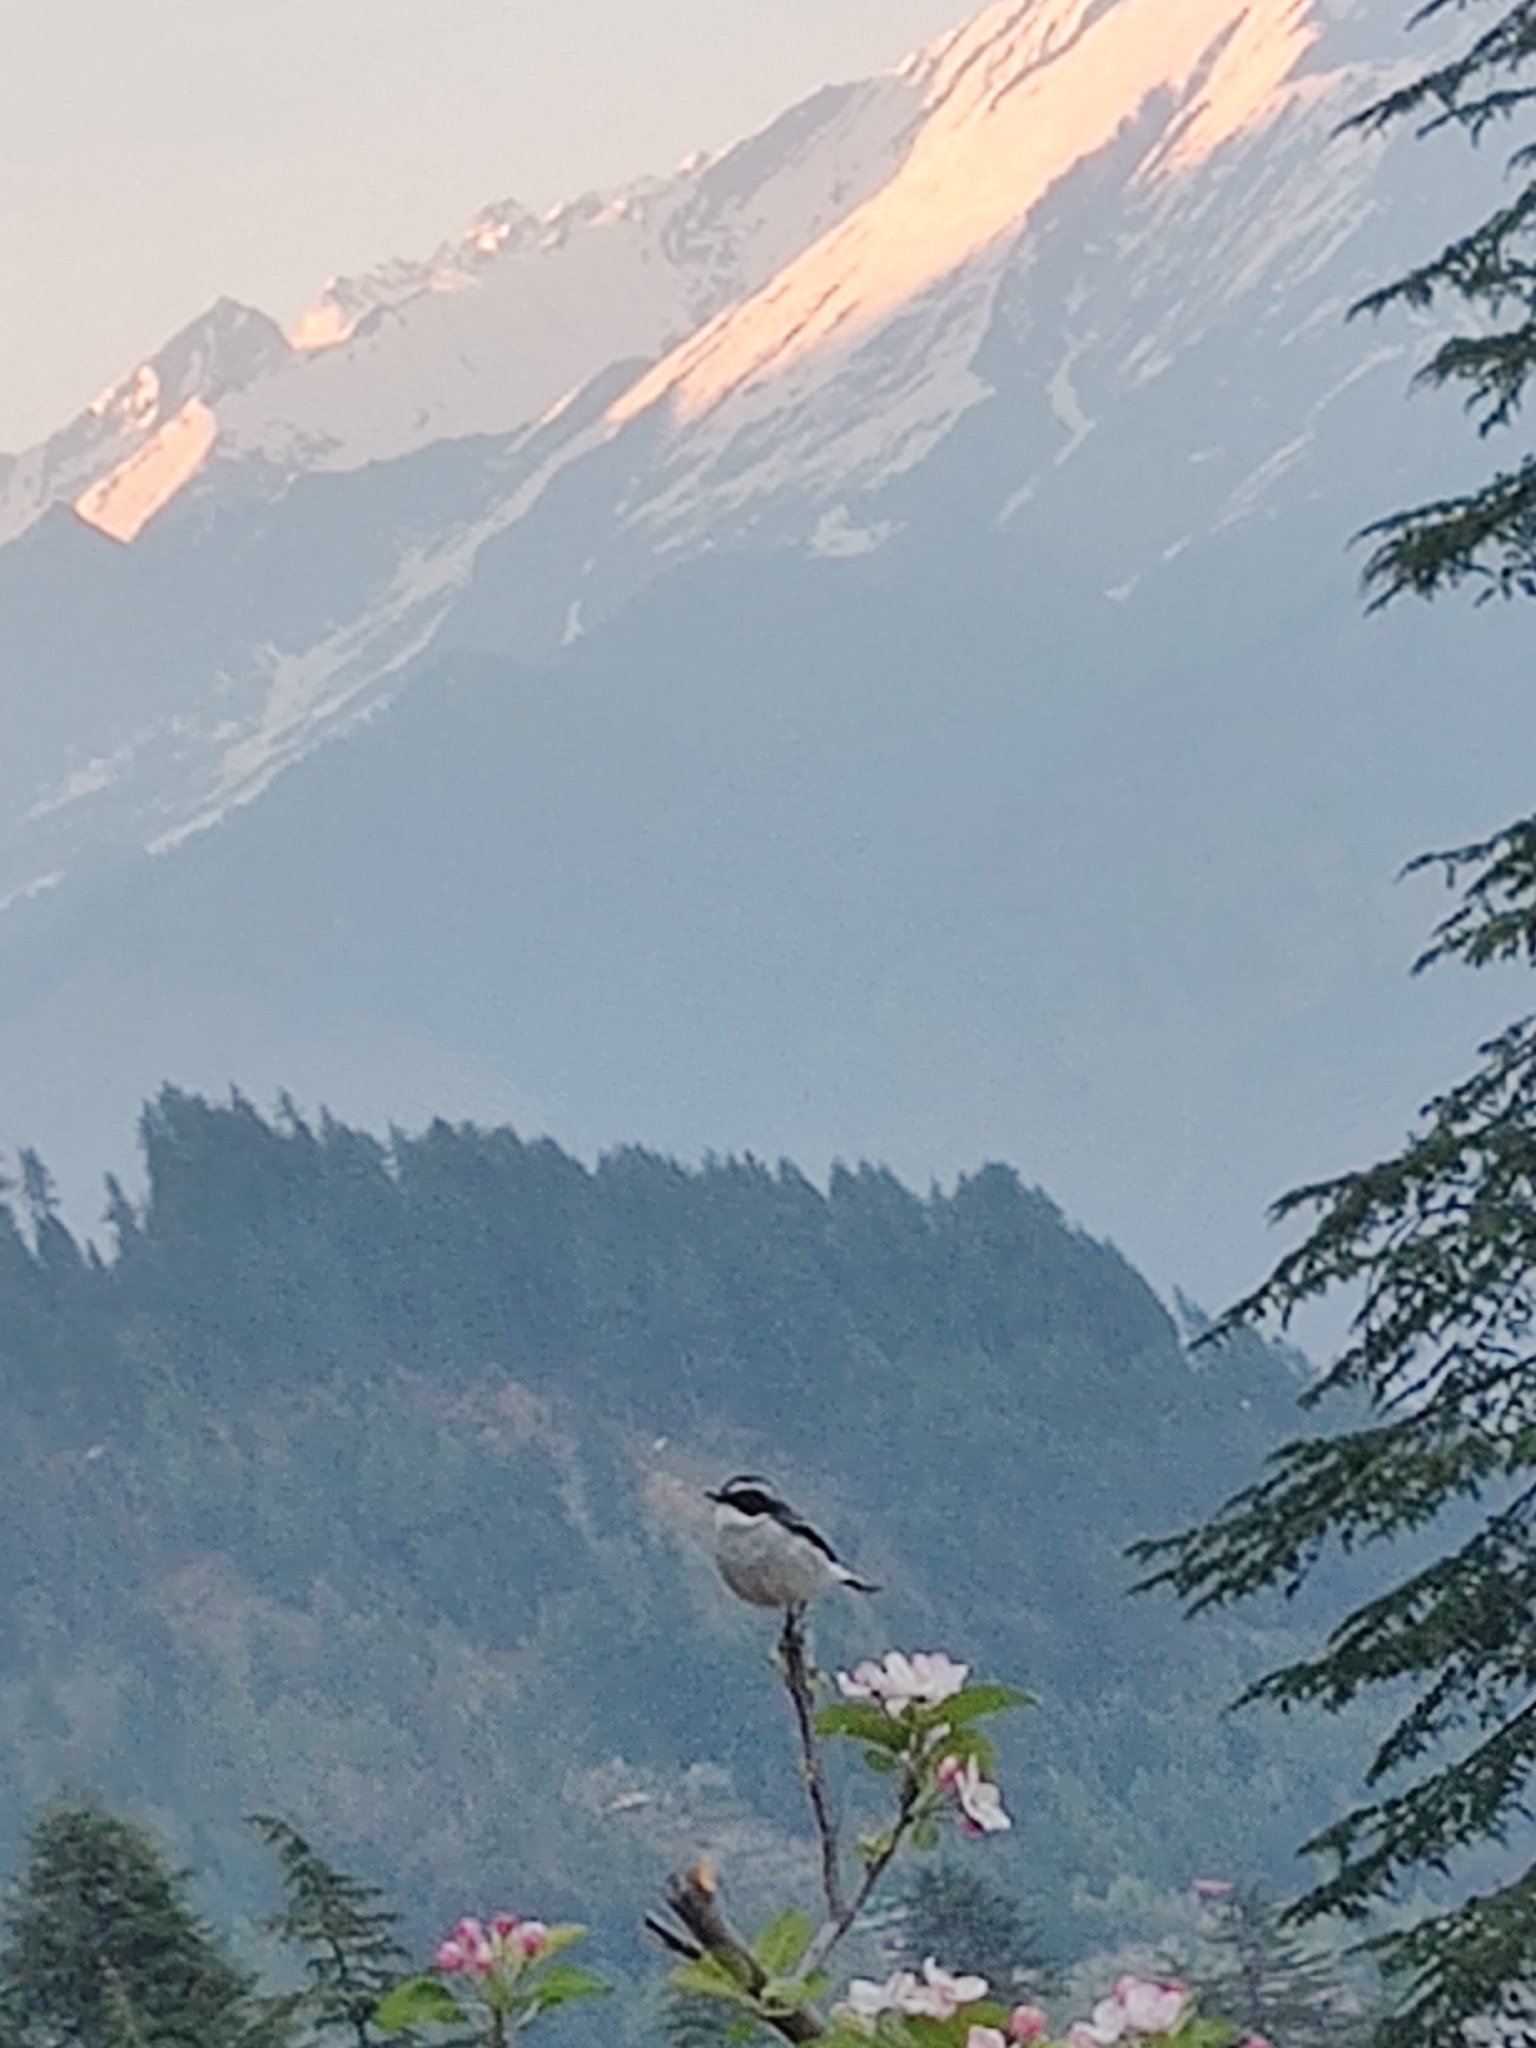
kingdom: Animalia
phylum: Chordata
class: Aves
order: Passeriformes
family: Muscicapidae
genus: Saxicola
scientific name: Saxicola ferreus
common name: Grey bush chat
